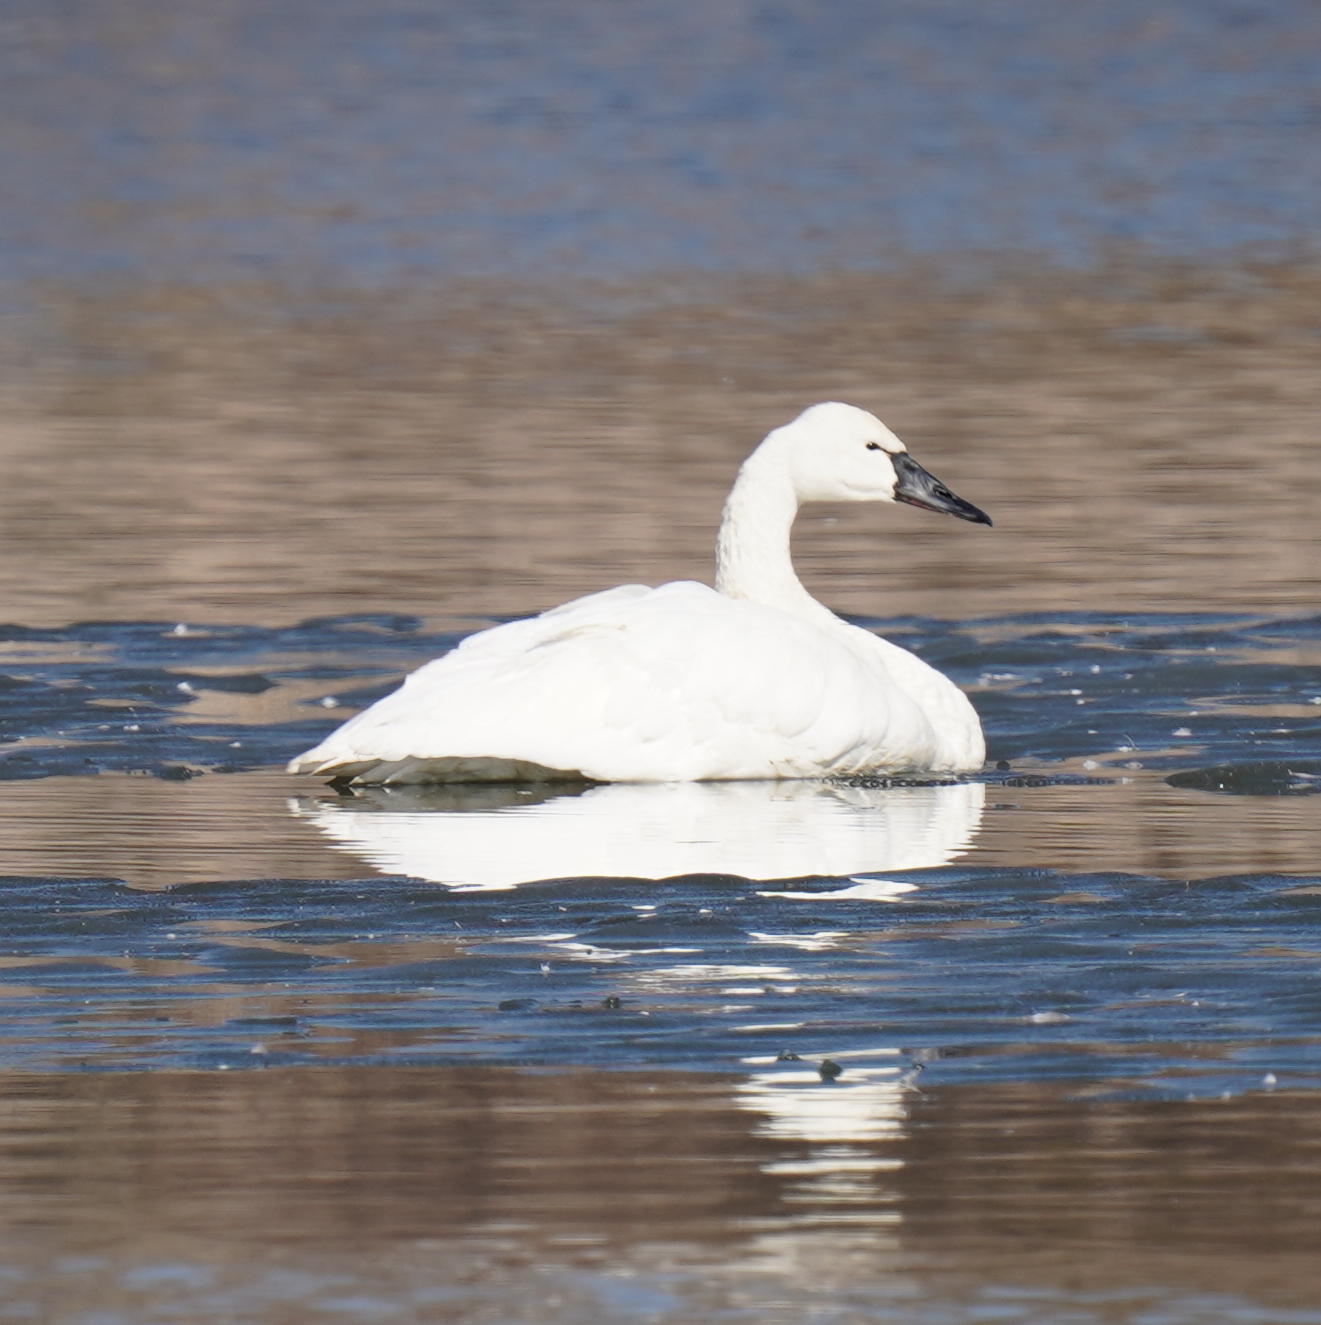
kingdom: Animalia
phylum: Chordata
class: Aves
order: Anseriformes
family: Anatidae
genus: Cygnus
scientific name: Cygnus columbianus
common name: Tundra swan
